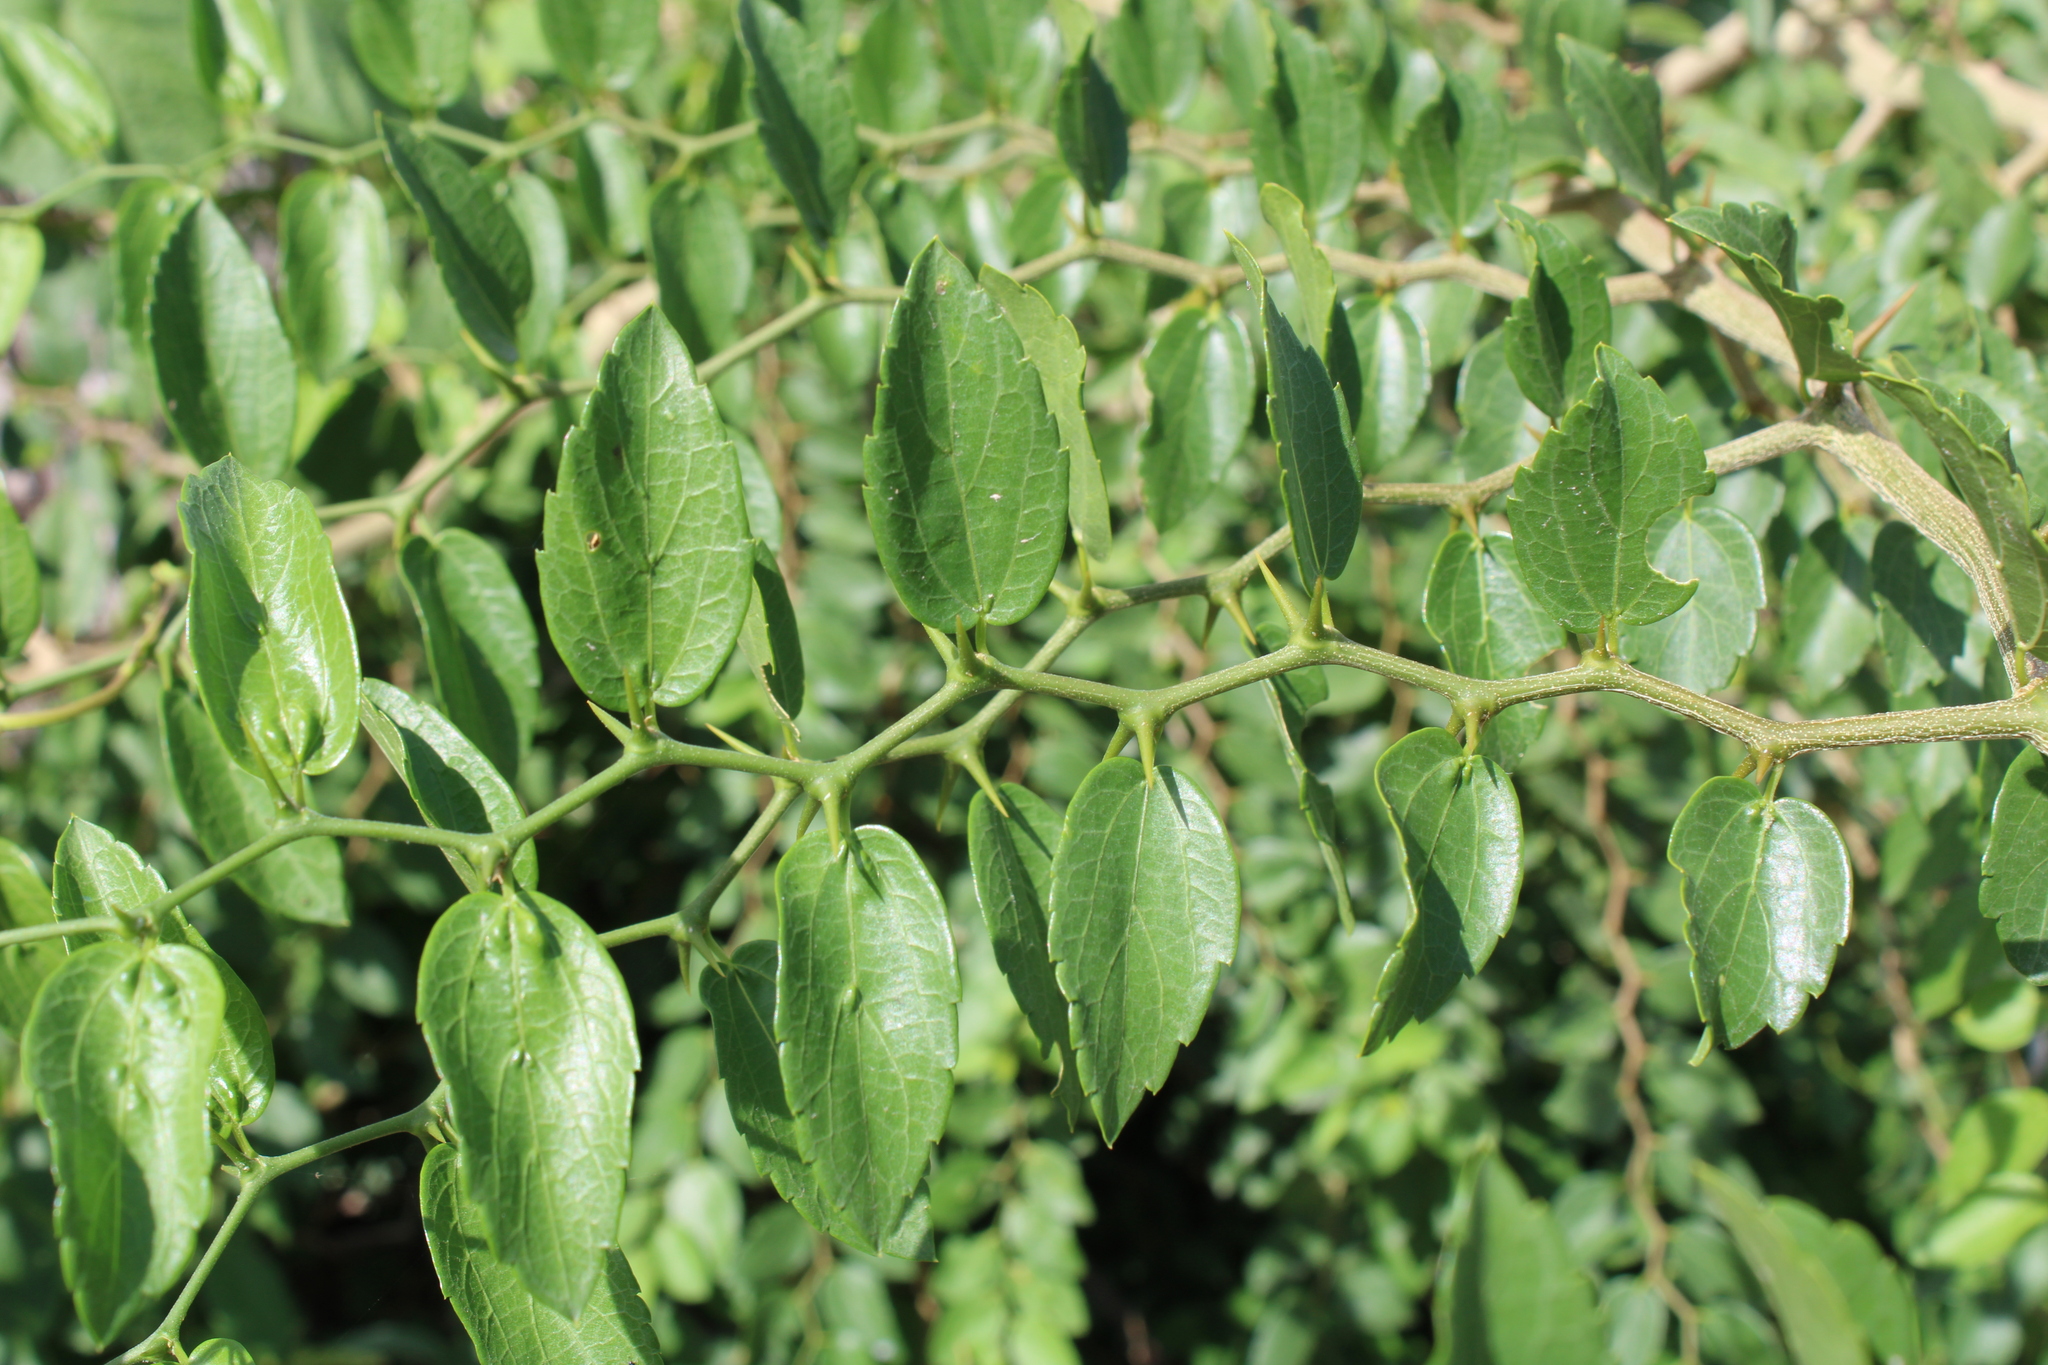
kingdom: Plantae
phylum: Tracheophyta
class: Magnoliopsida
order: Rosales
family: Cannabaceae
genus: Celtis
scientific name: Celtis tala
